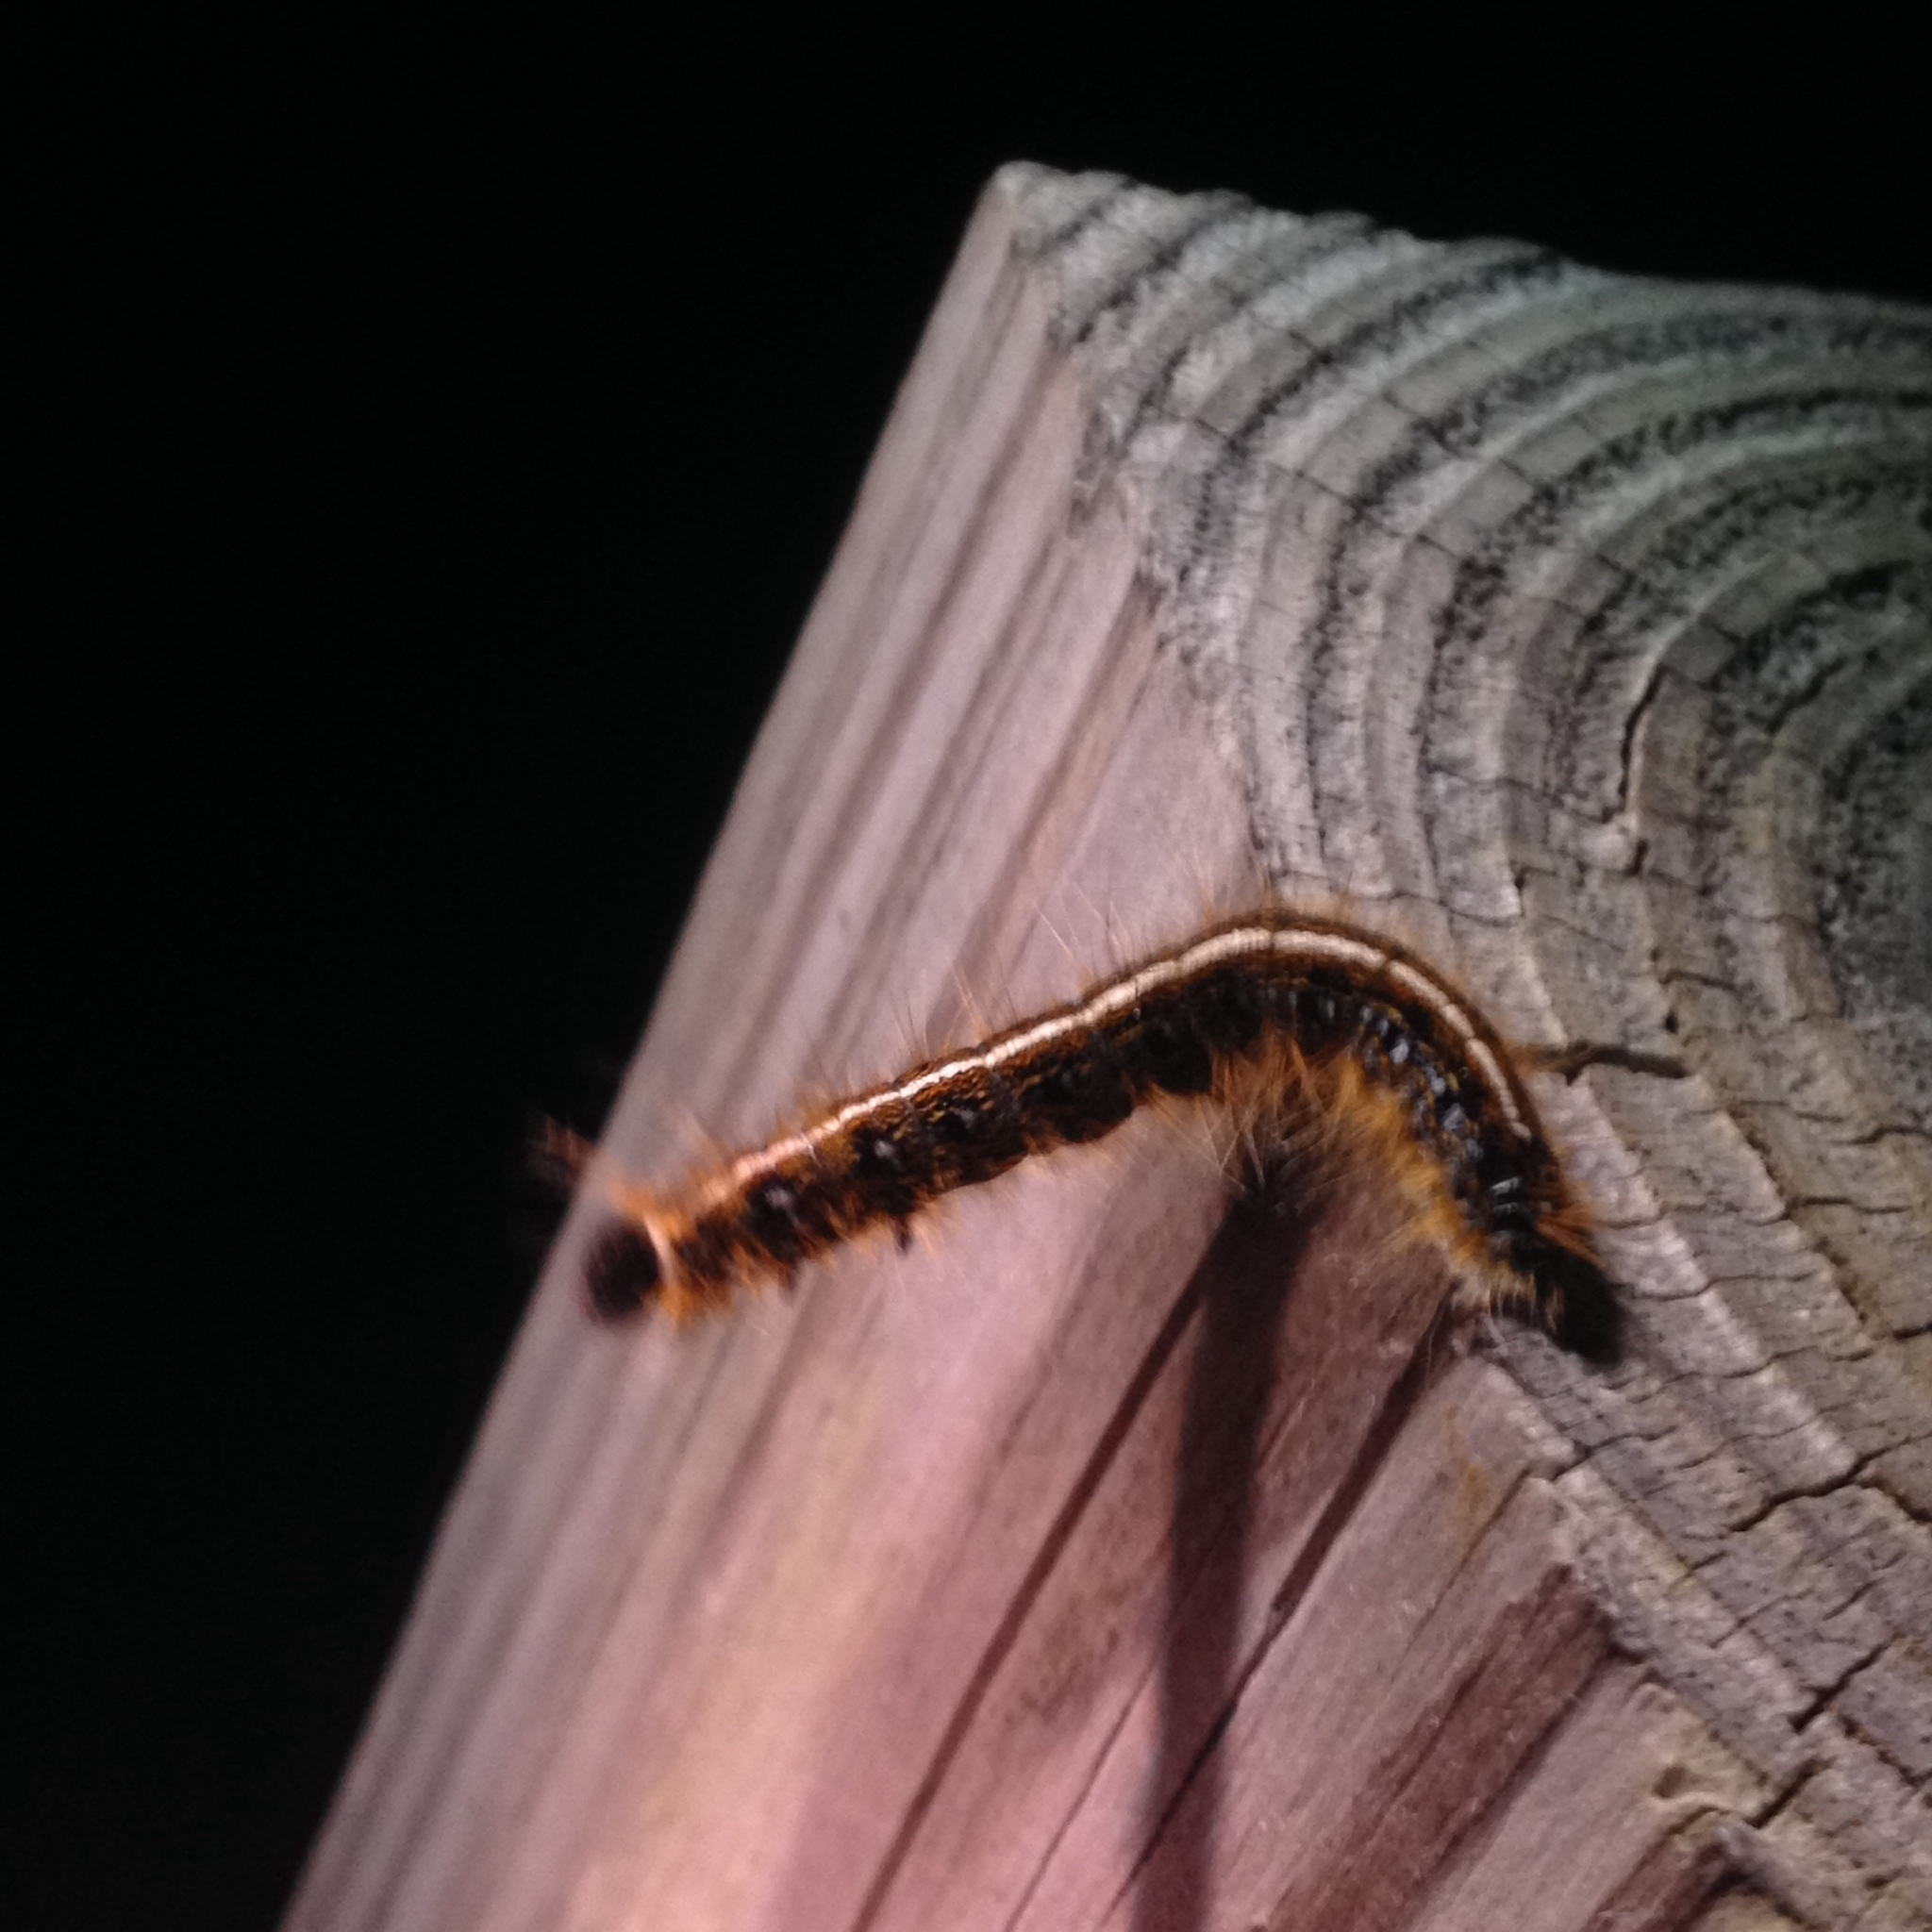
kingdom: Animalia
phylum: Arthropoda
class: Insecta
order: Lepidoptera
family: Lasiocampidae
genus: Malacosoma
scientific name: Malacosoma americana
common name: Eastern tent caterpillar moth
